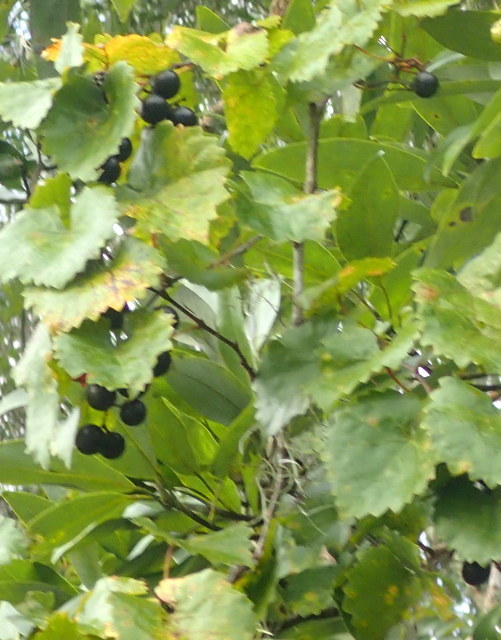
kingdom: Plantae
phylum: Tracheophyta
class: Magnoliopsida
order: Vitales
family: Vitaceae
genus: Vitis
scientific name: Vitis rotundifolia
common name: Muscadine grape
